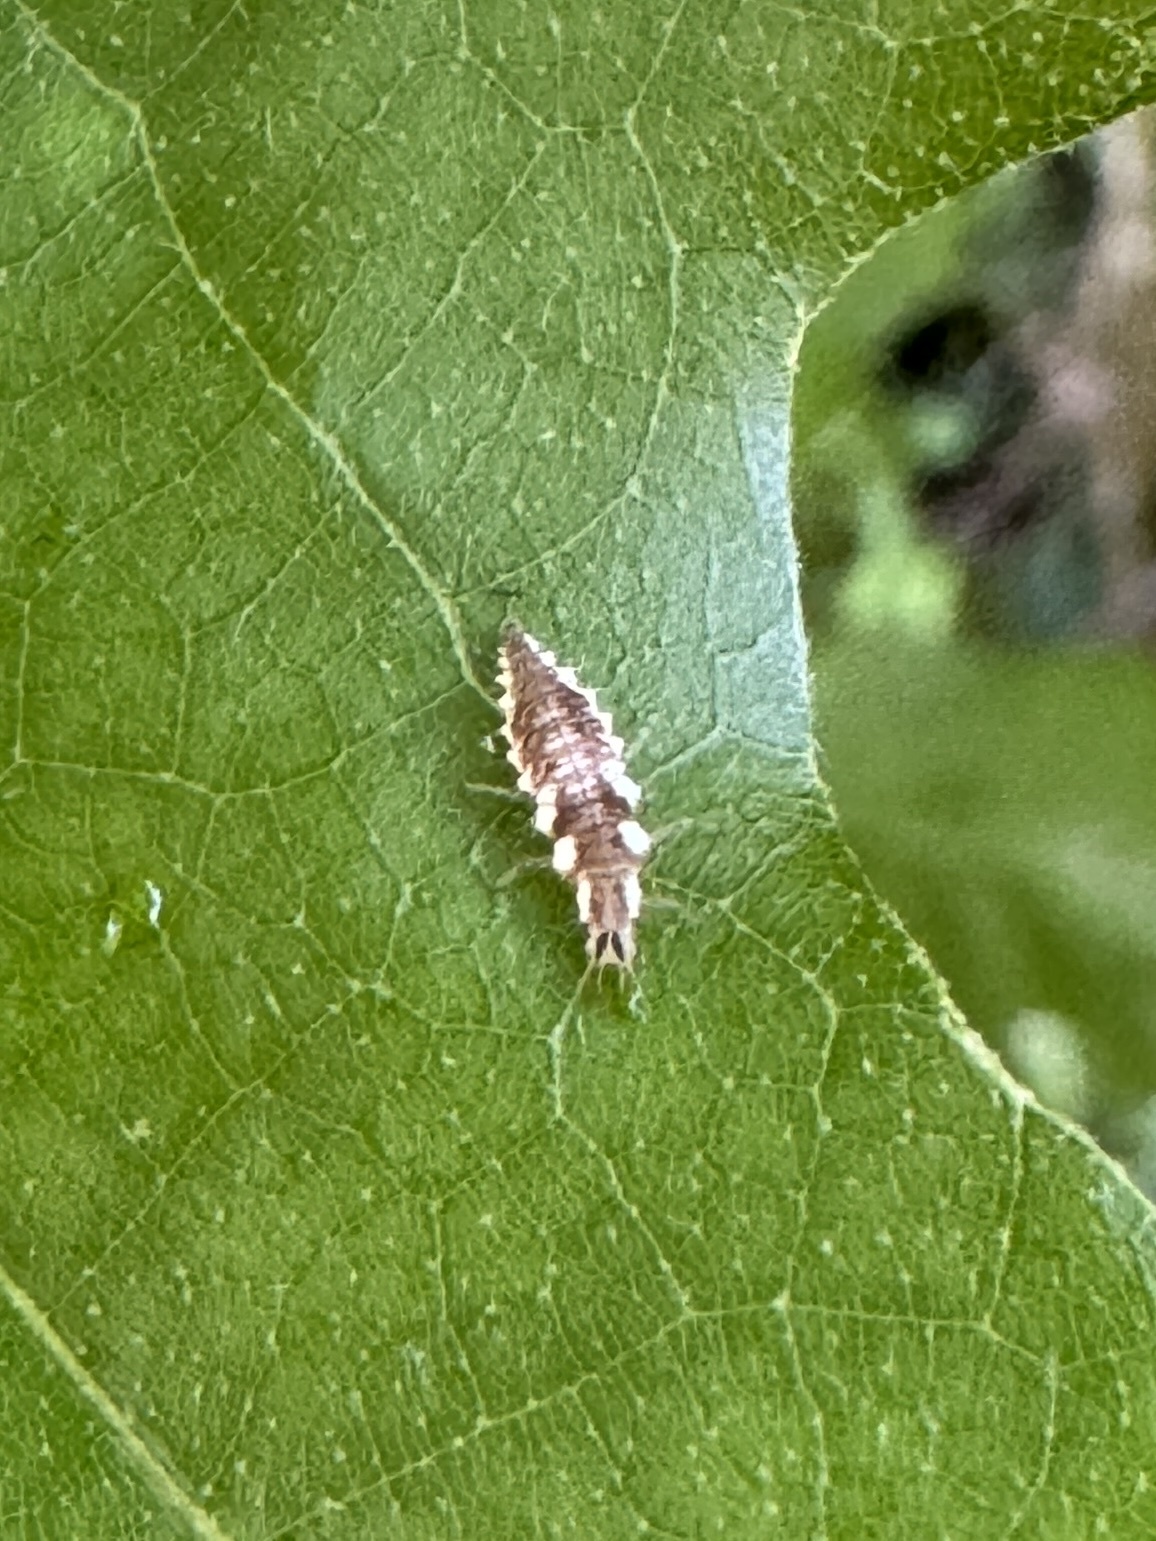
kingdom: Animalia
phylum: Arthropoda
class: Insecta
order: Neuroptera
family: Chrysopidae
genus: Chrysoperla
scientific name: Chrysoperla rufilabris
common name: Red-lipped green lacewing
